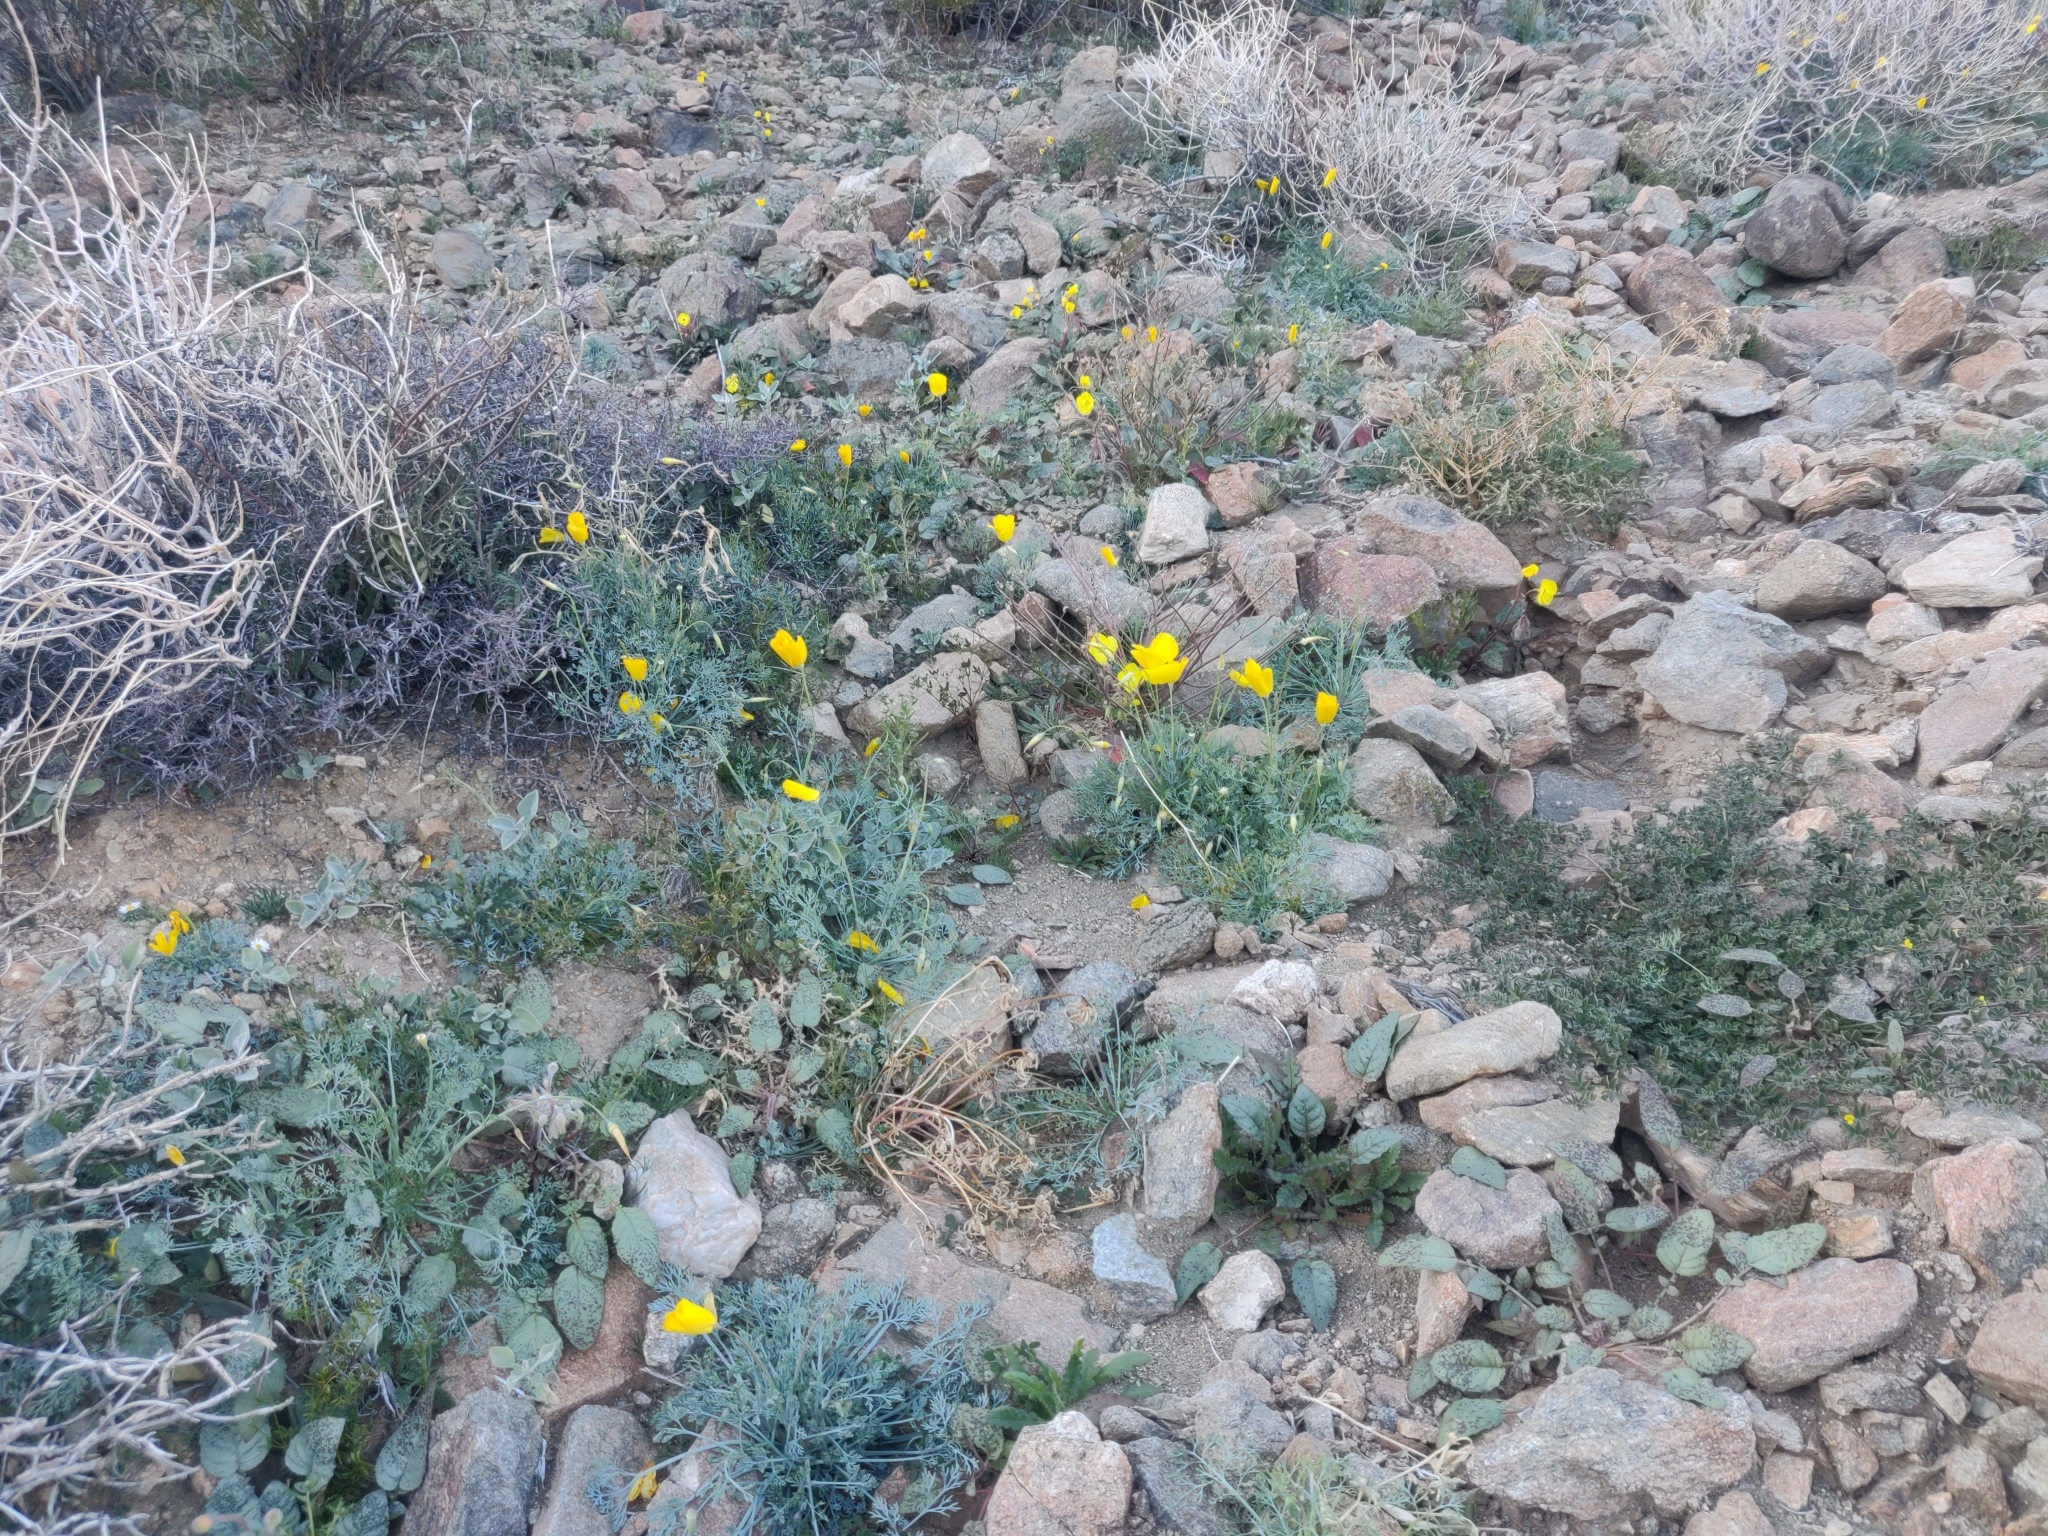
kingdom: Plantae
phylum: Tracheophyta
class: Magnoliopsida
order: Ranunculales
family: Papaveraceae
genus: Eschscholzia
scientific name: Eschscholzia papastillii
